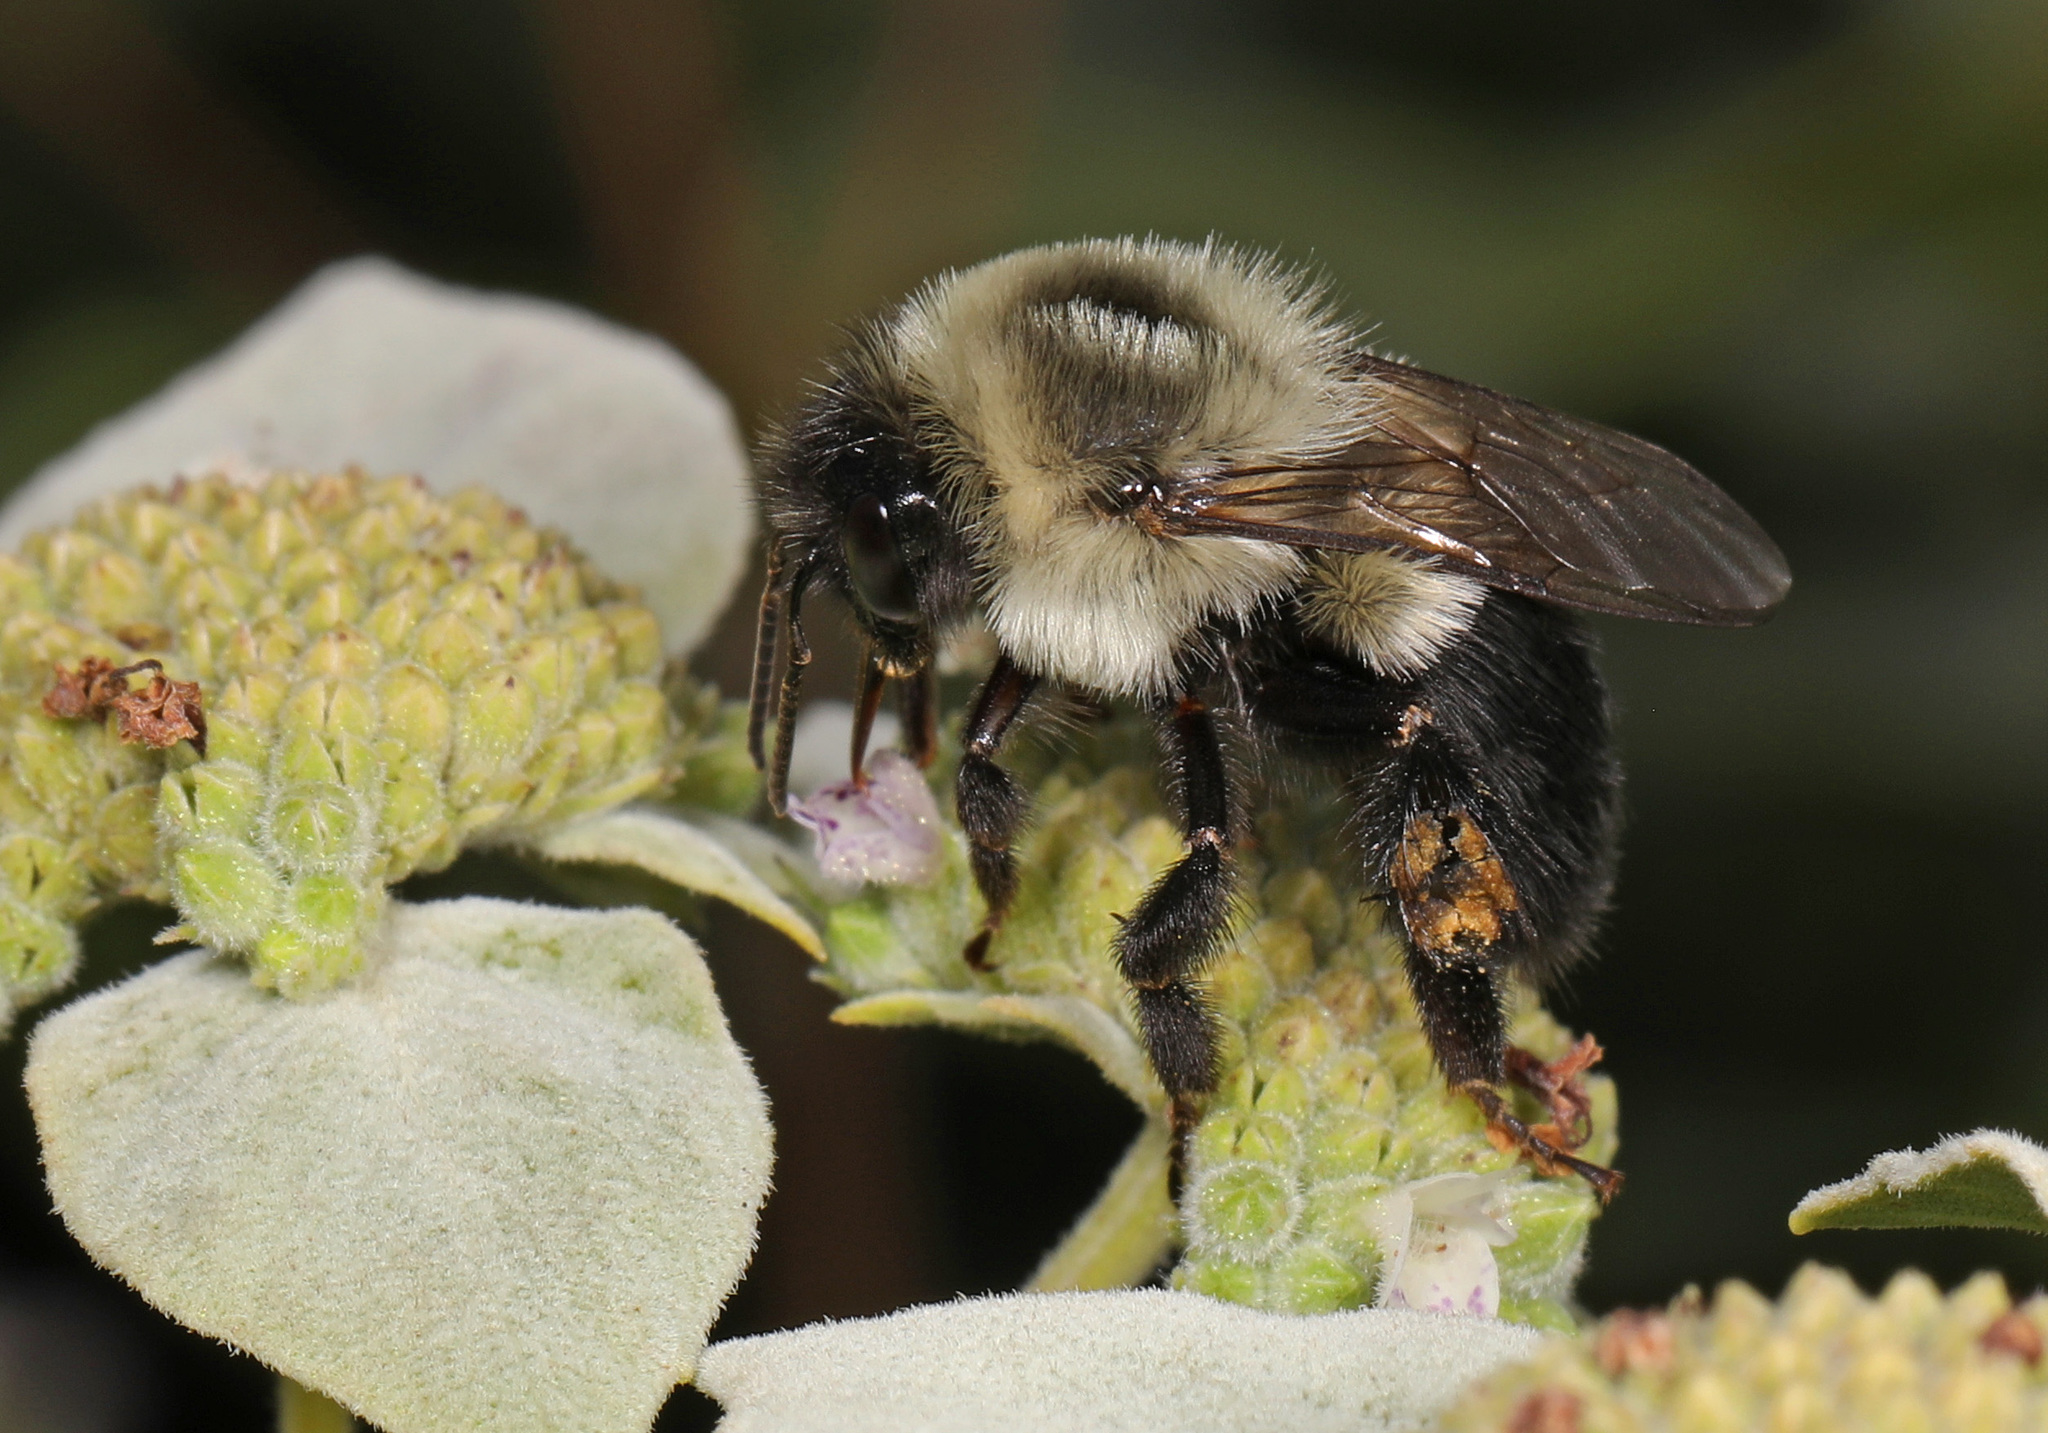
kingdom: Animalia
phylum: Arthropoda
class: Insecta
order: Hymenoptera
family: Apidae
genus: Bombus
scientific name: Bombus impatiens
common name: Common eastern bumble bee
